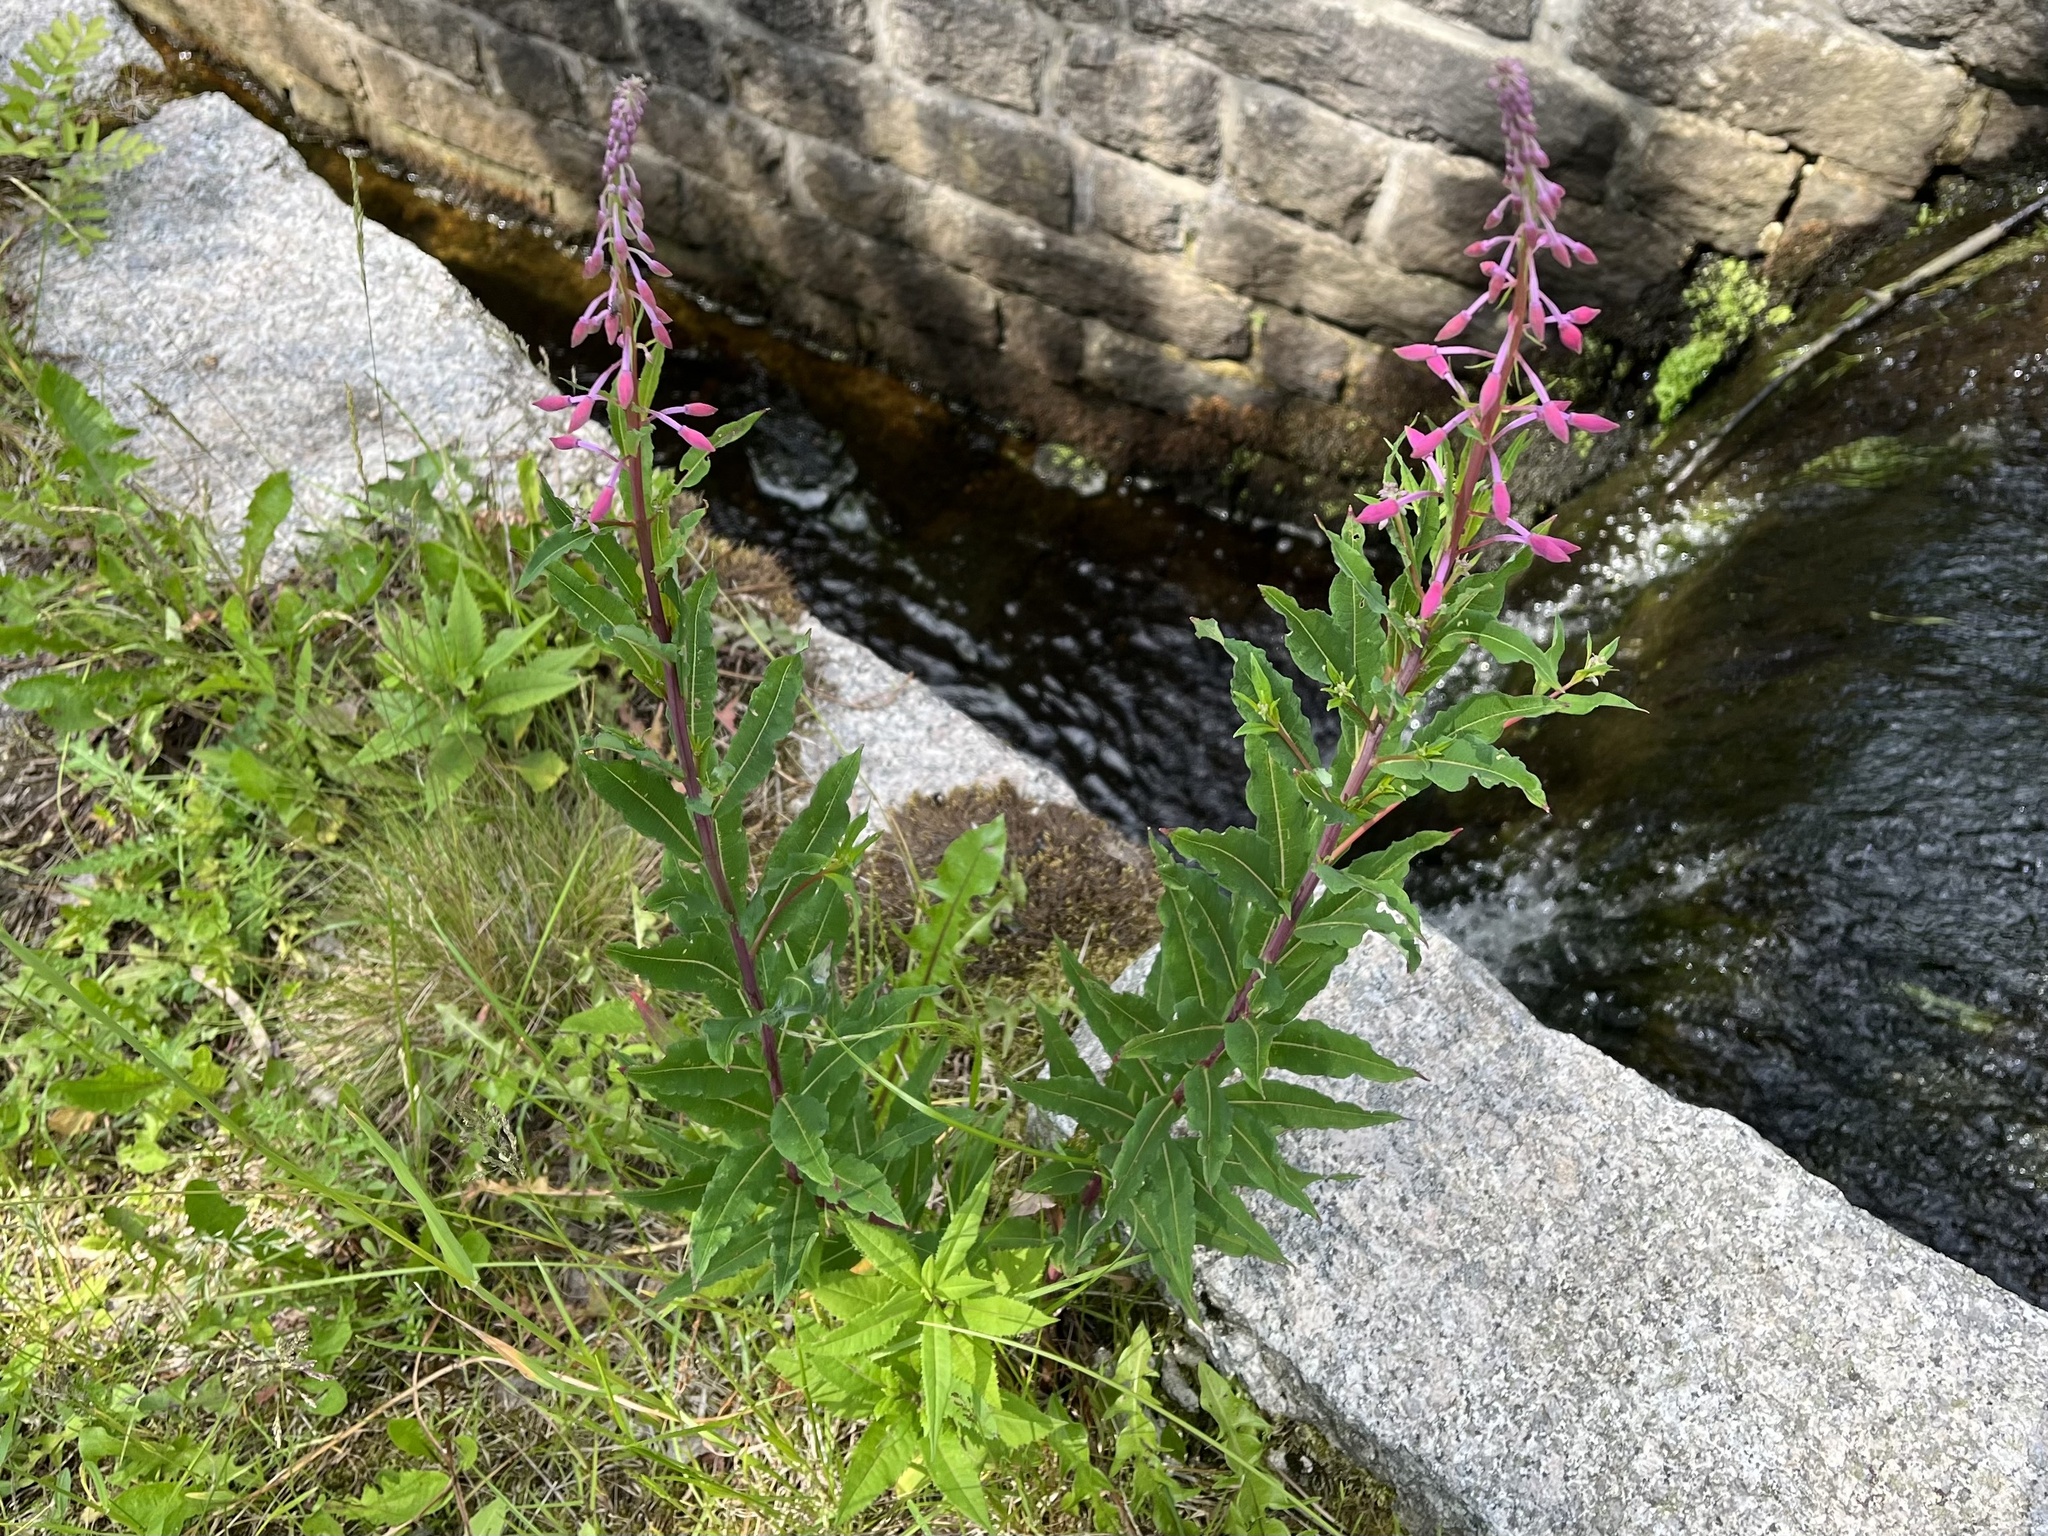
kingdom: Plantae
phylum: Tracheophyta
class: Magnoliopsida
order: Myrtales
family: Onagraceae
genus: Chamaenerion
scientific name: Chamaenerion angustifolium
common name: Fireweed
